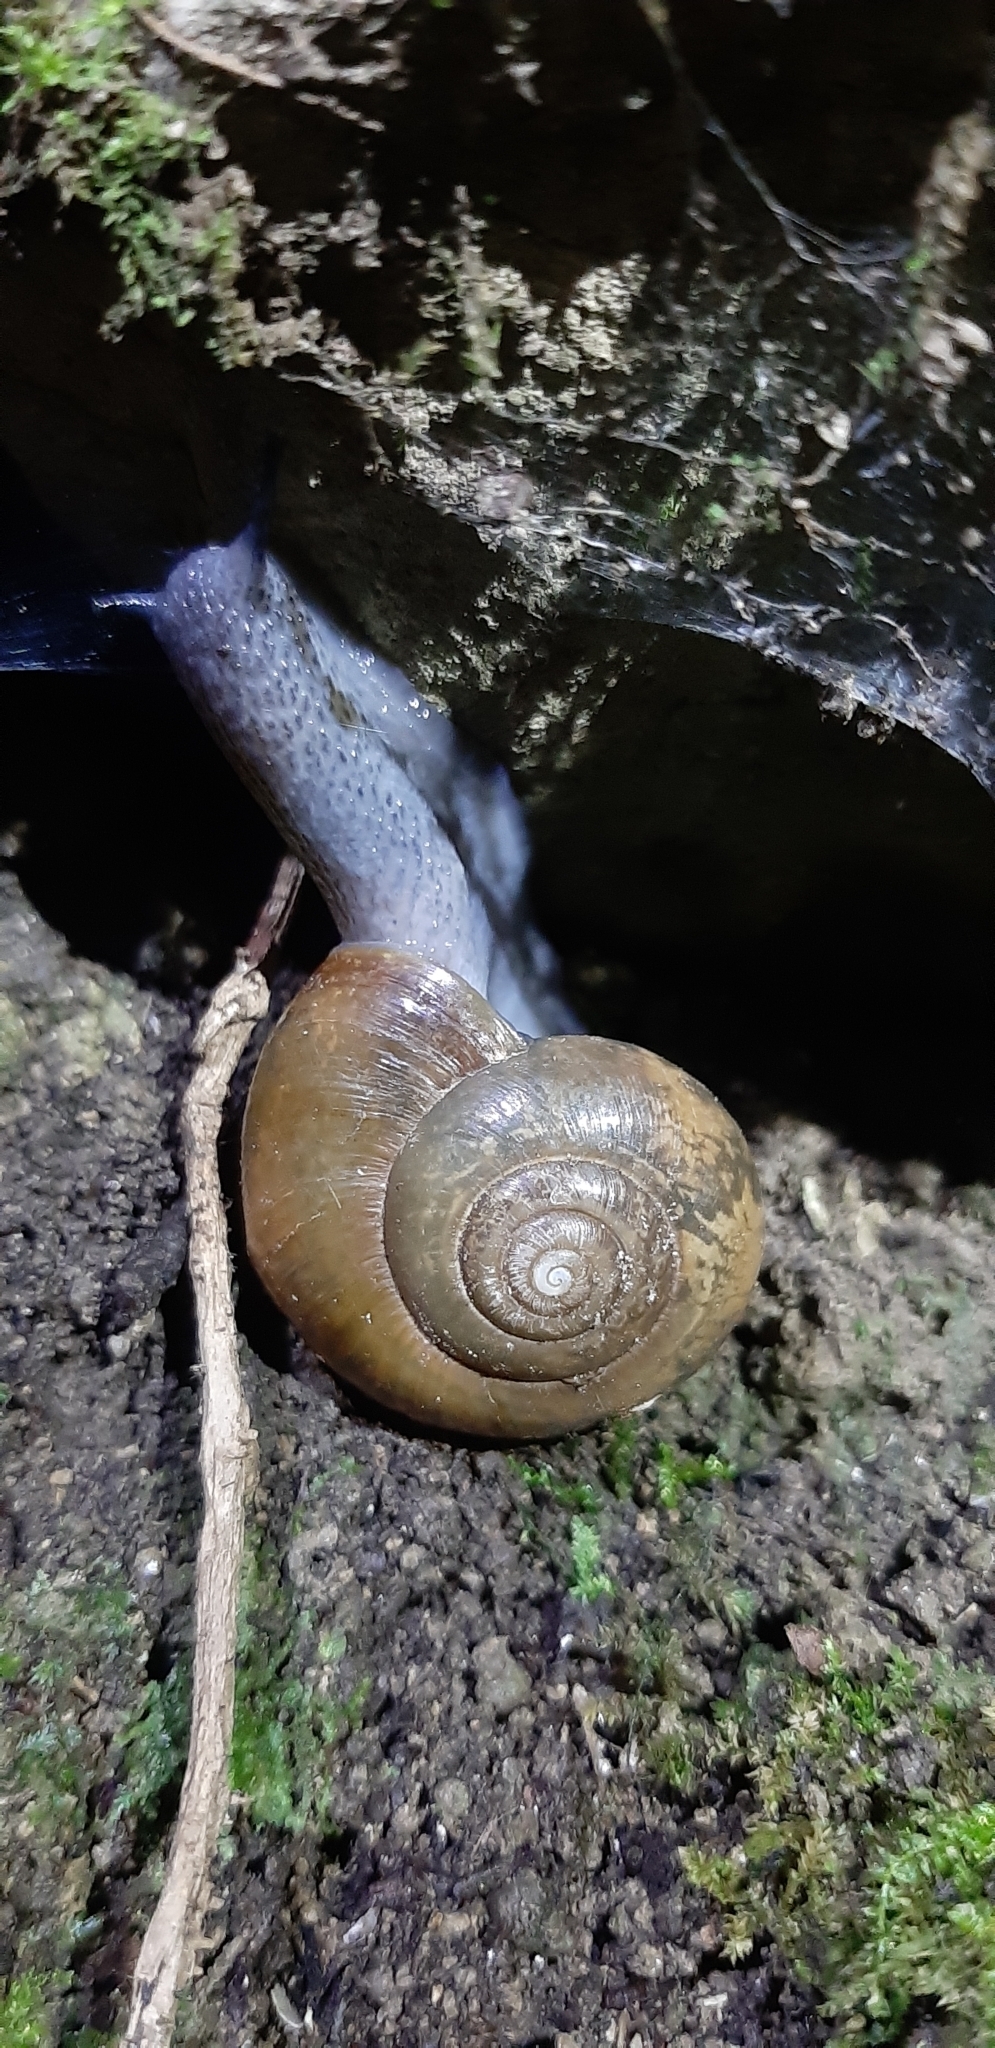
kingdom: Animalia
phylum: Mollusca
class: Gastropoda
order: Stylommatophora
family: Gastrodontidae
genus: Retinella
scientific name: Retinella olivetorum
